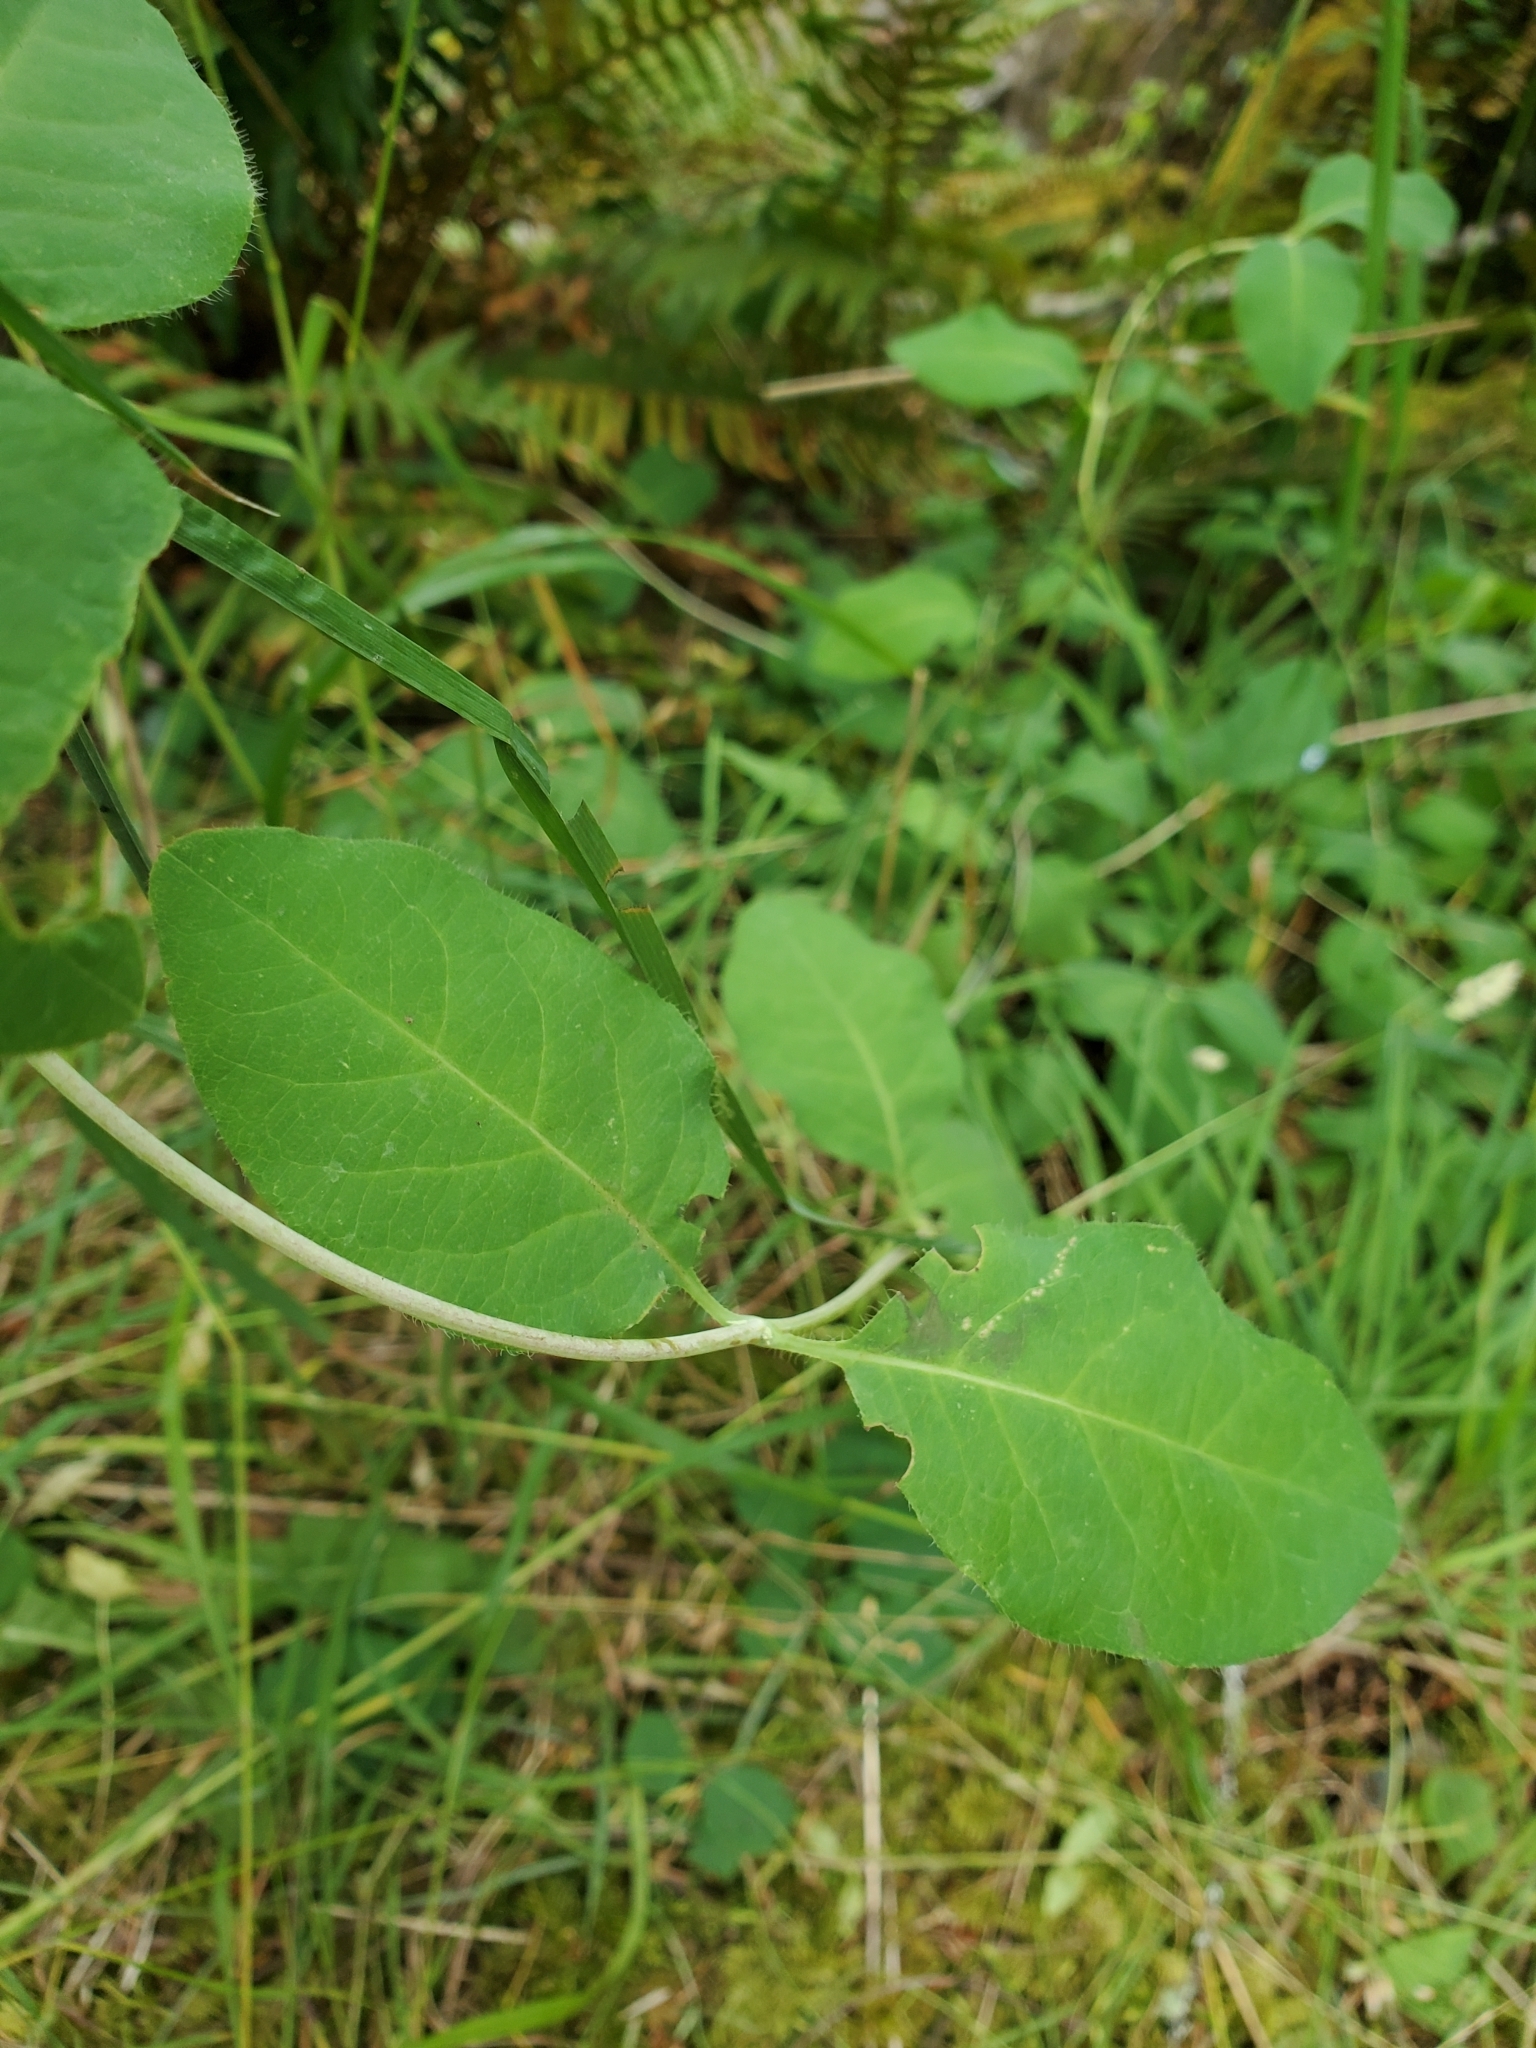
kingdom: Plantae
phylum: Tracheophyta
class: Magnoliopsida
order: Dipsacales
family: Caprifoliaceae
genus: Lonicera
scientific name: Lonicera ciliosa
